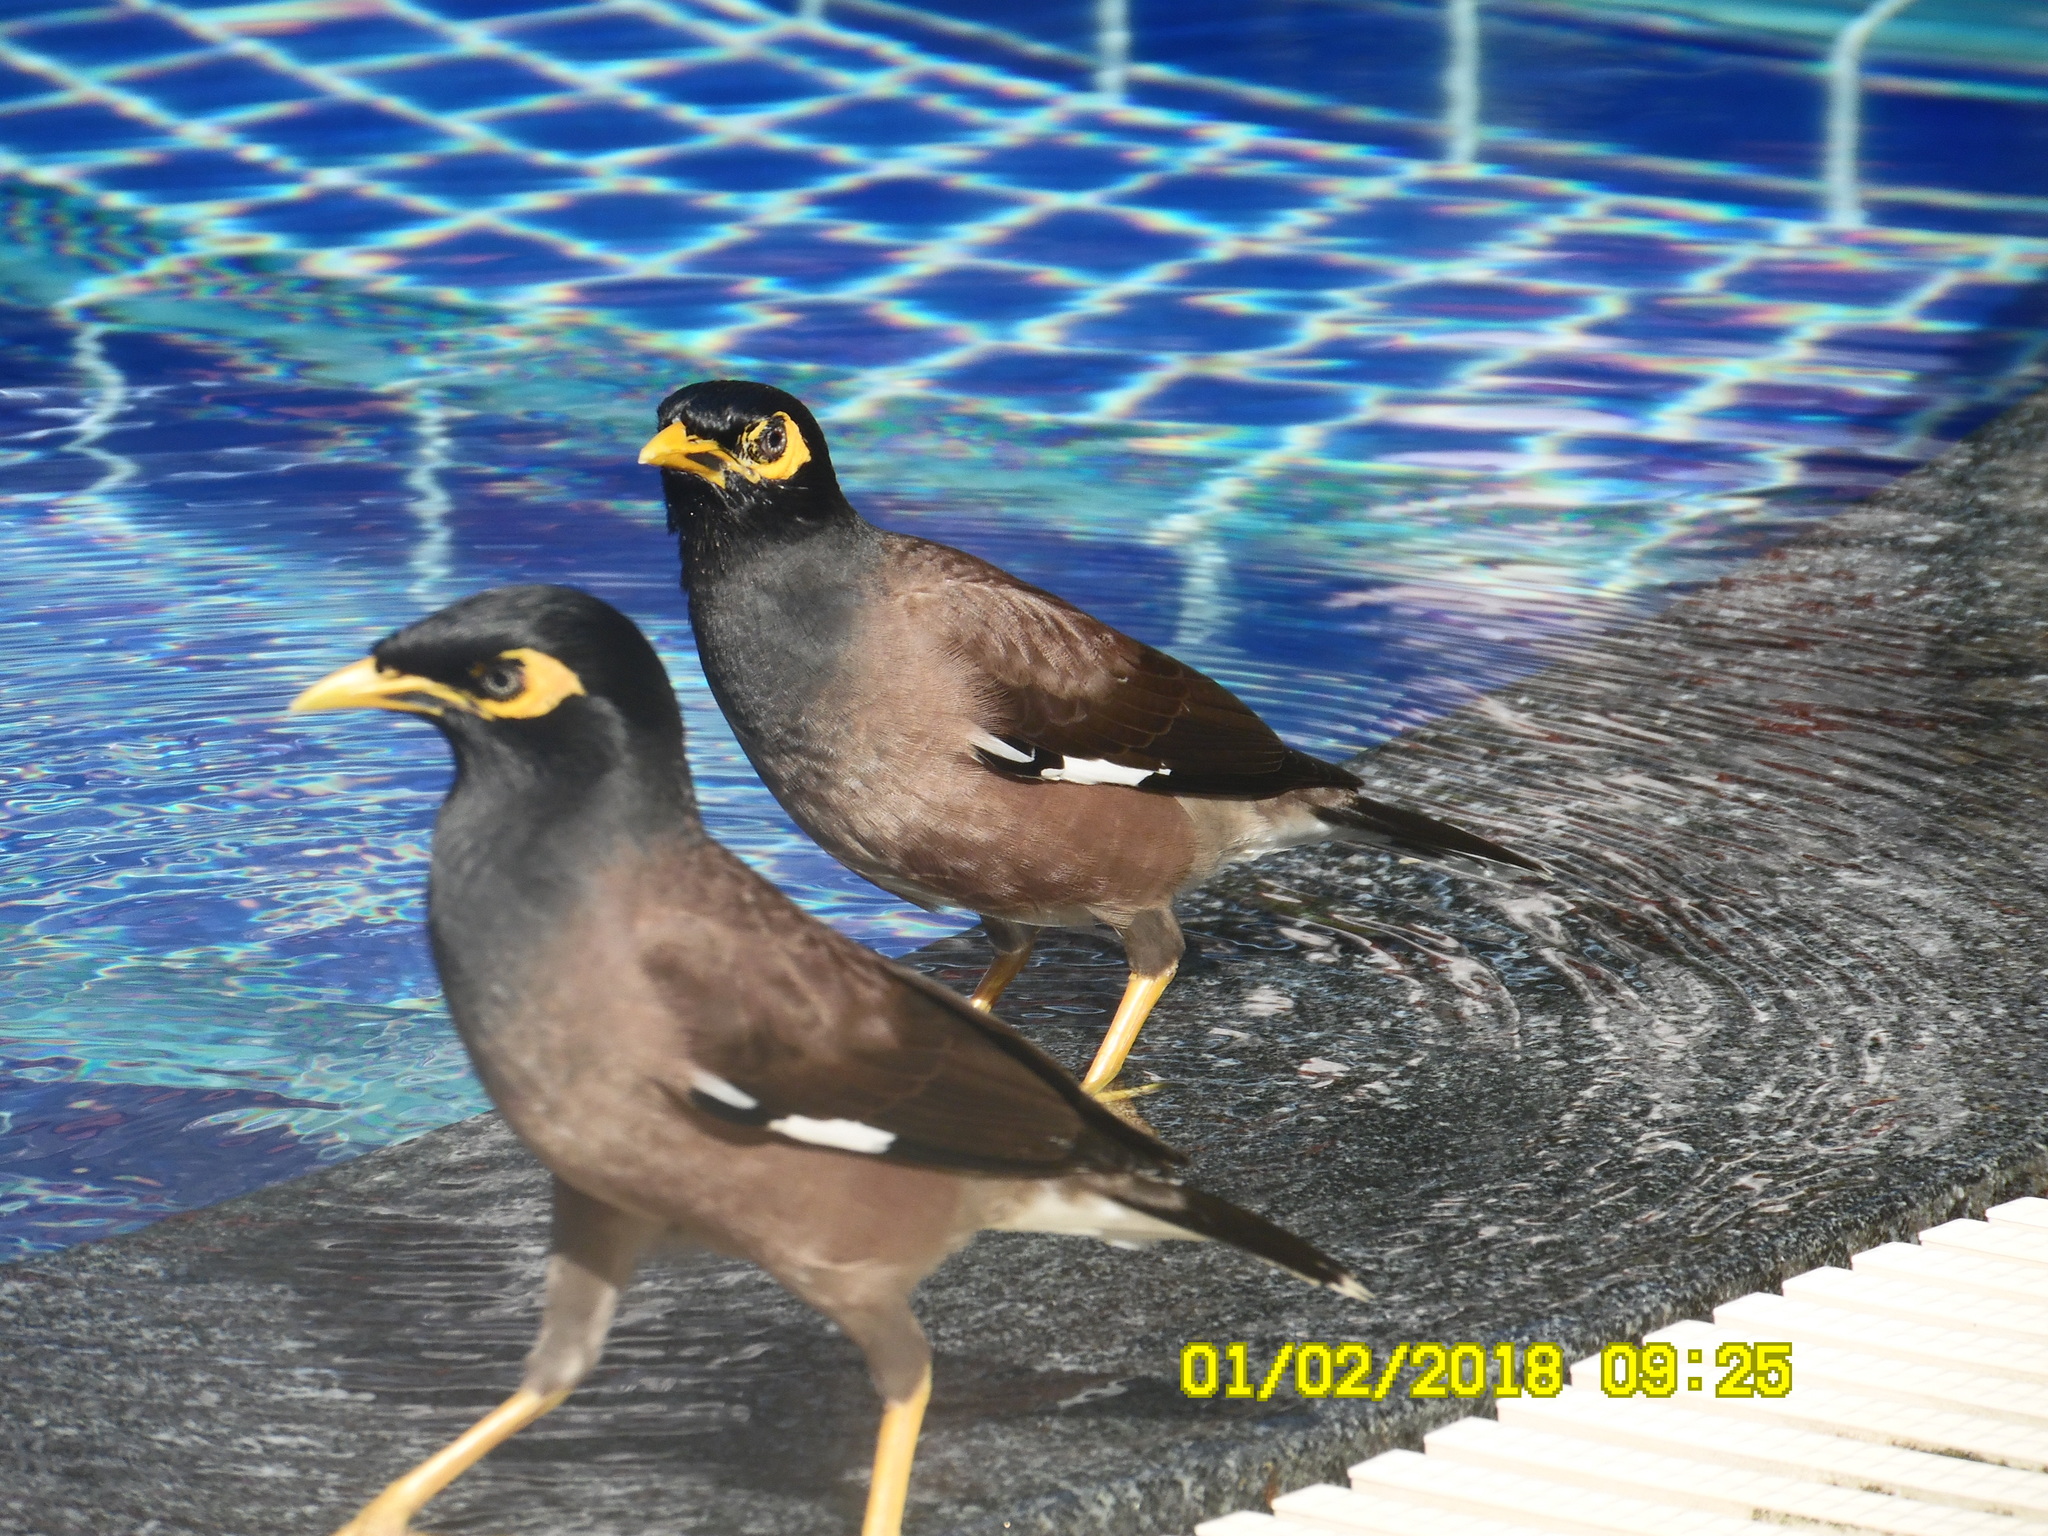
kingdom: Animalia
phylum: Chordata
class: Aves
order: Passeriformes
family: Sturnidae
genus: Acridotheres
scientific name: Acridotheres tristis
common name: Common myna
